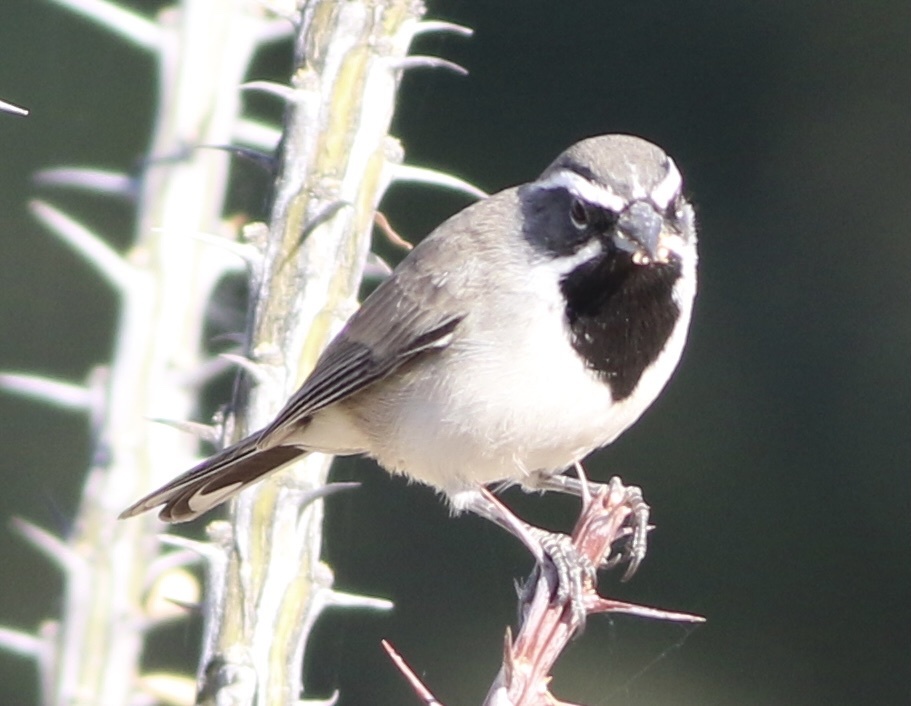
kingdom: Animalia
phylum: Chordata
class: Aves
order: Passeriformes
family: Passerellidae
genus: Amphispiza
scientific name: Amphispiza bilineata
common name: Black-throated sparrow
